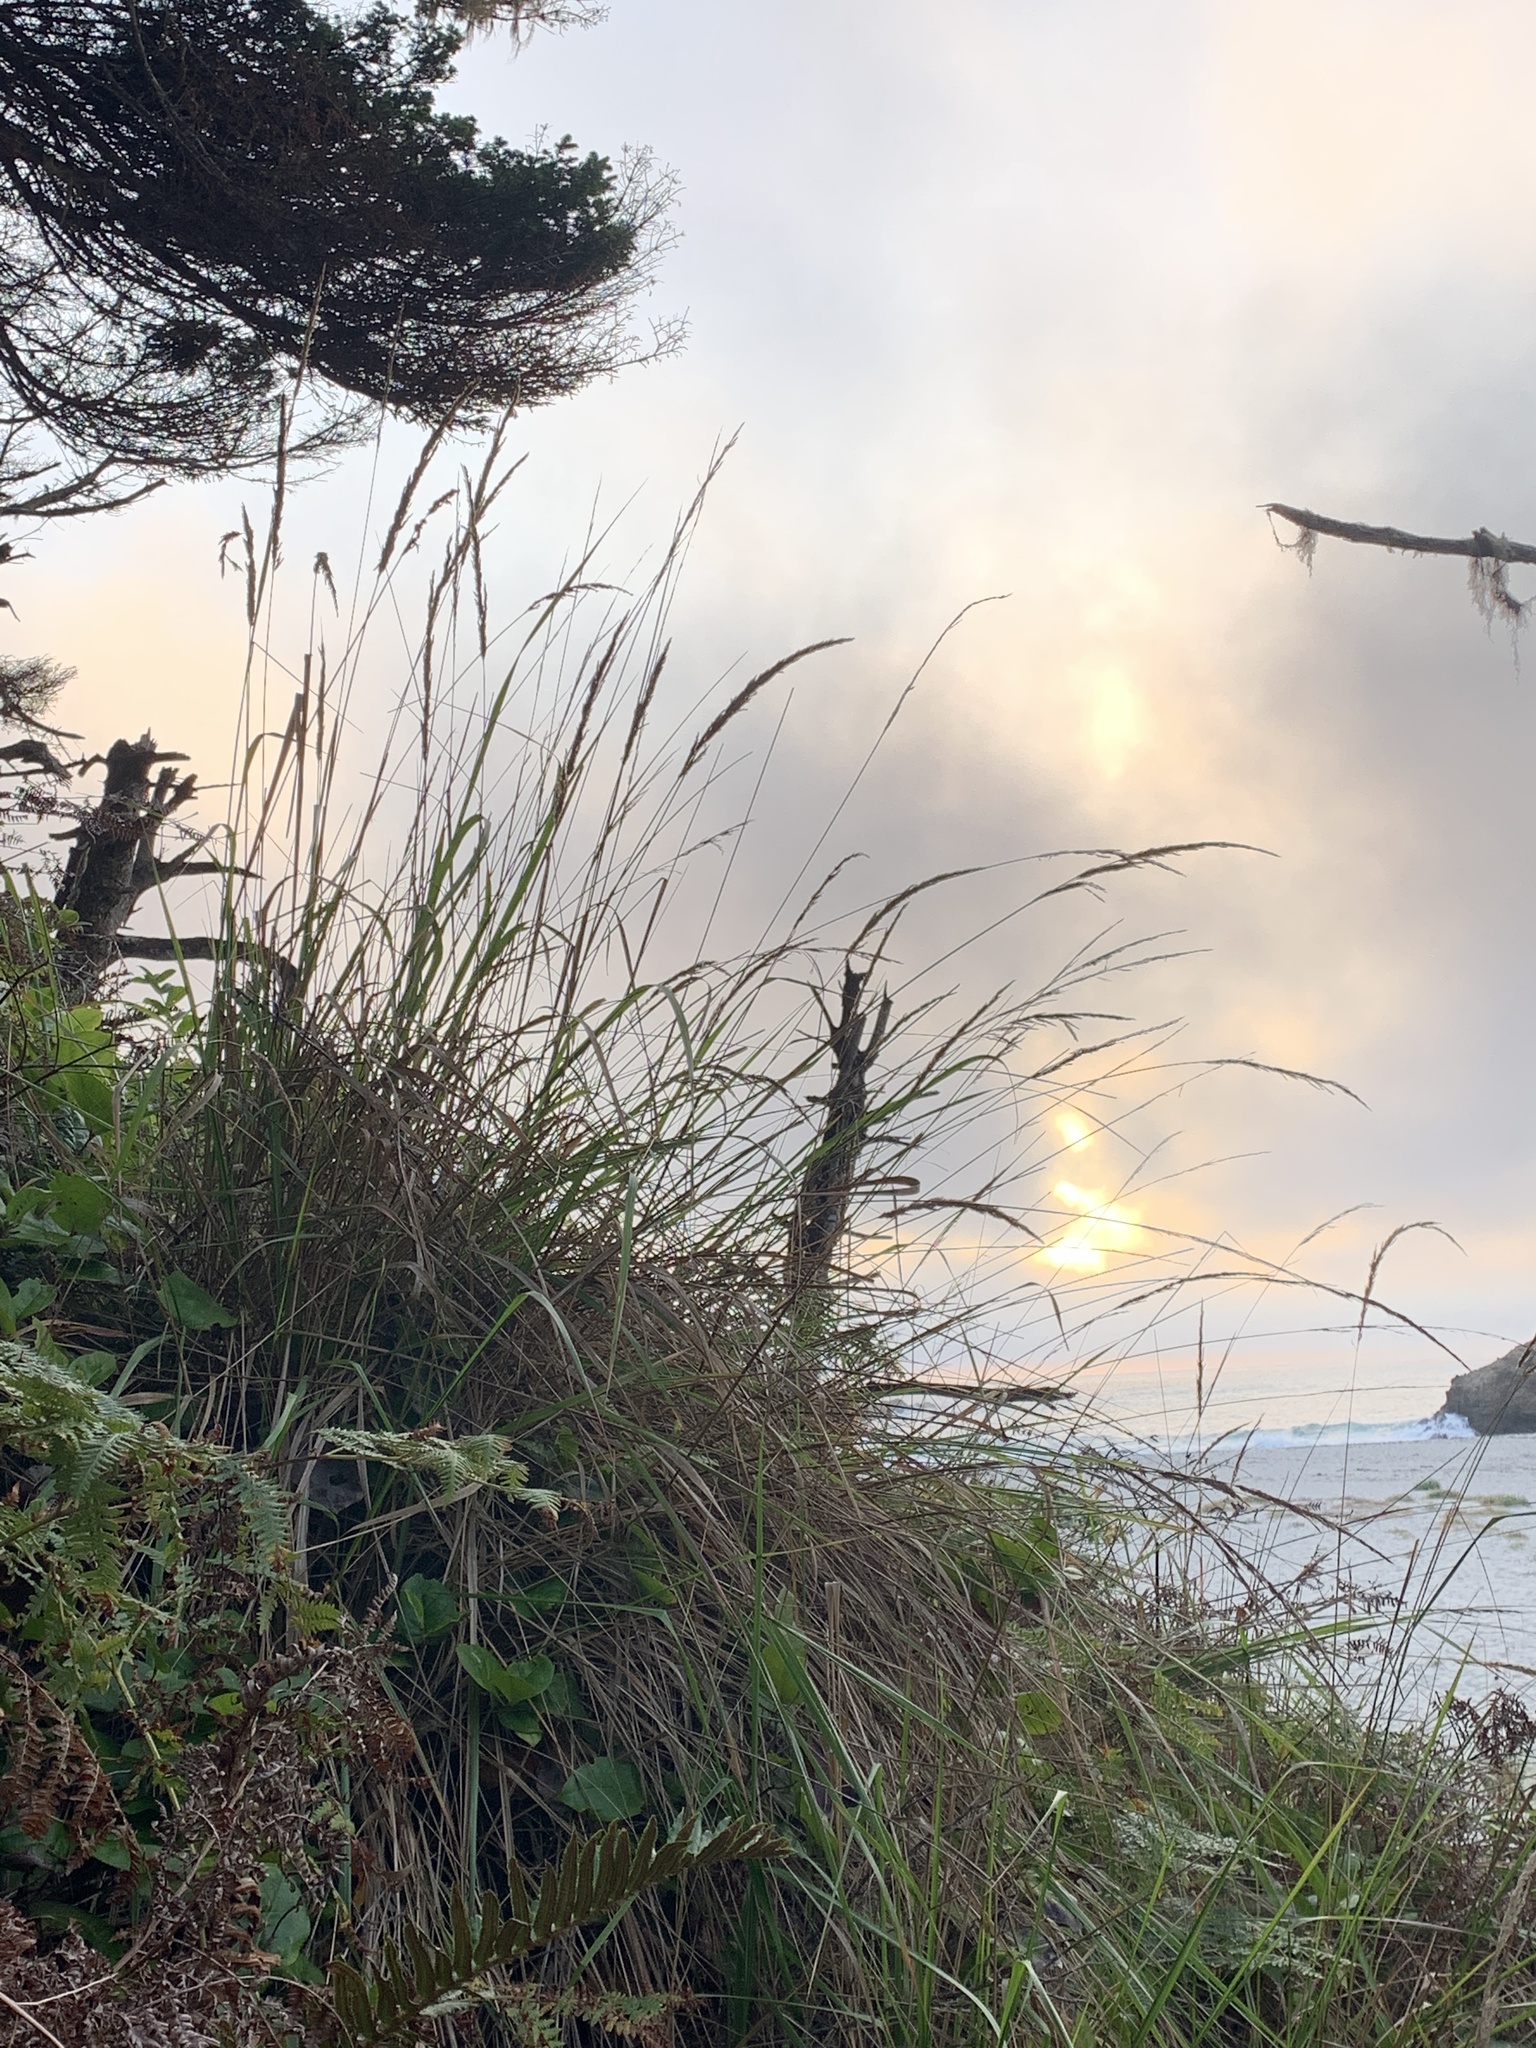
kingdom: Plantae
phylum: Tracheophyta
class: Liliopsida
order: Poales
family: Poaceae
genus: Calamagrostis
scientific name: Calamagrostis nutkaensis
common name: Pacific reed grass
